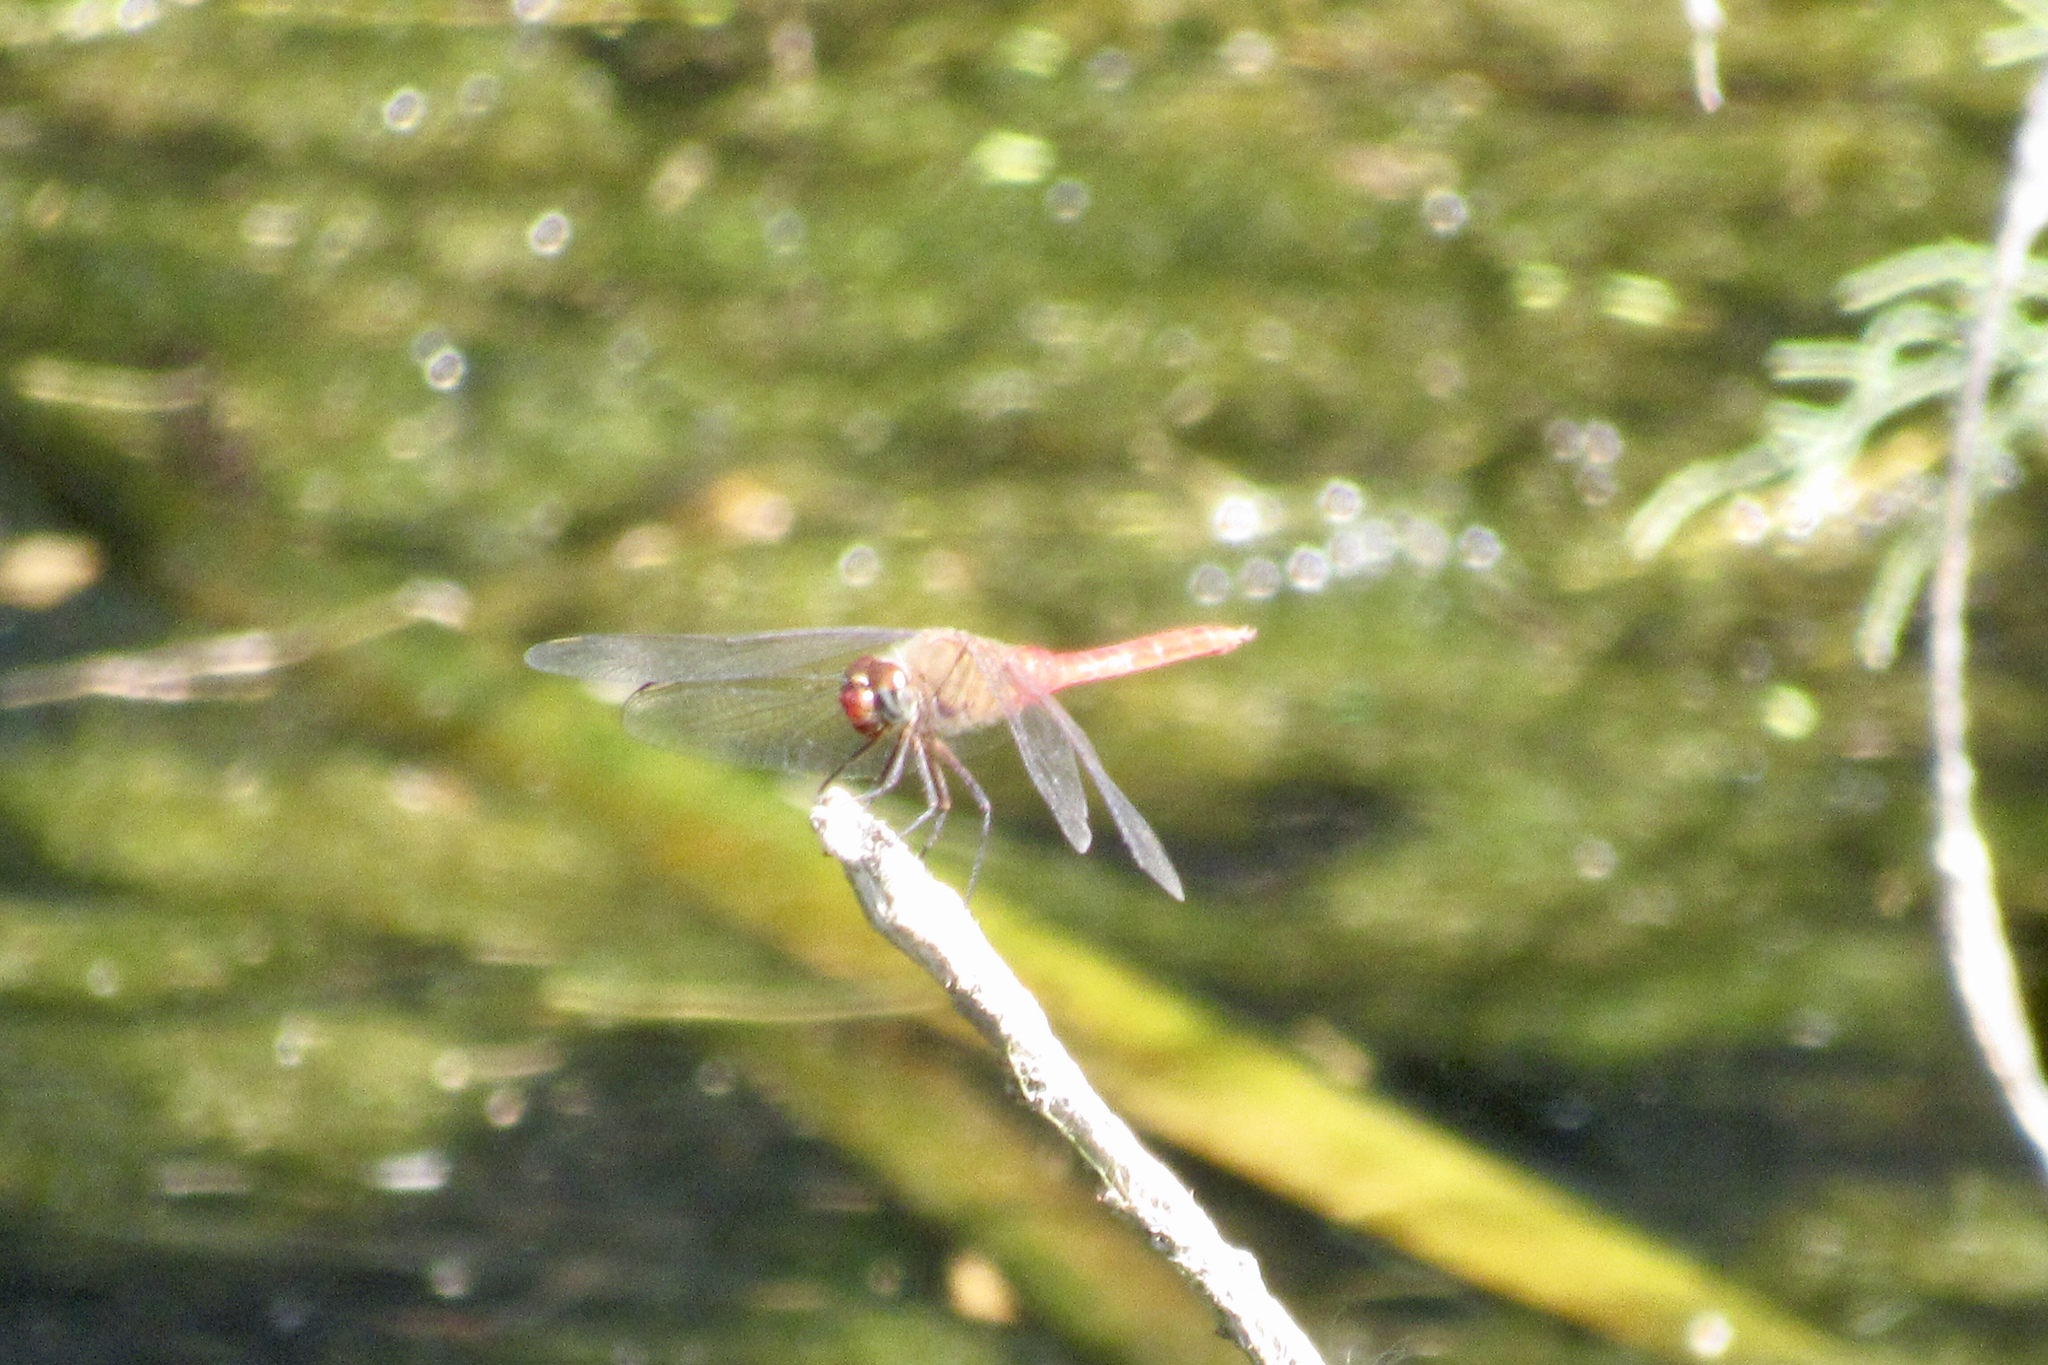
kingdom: Animalia
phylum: Arthropoda
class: Insecta
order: Odonata
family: Libellulidae
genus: Brachymesia
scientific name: Brachymesia furcata
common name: Red-taled pennant
